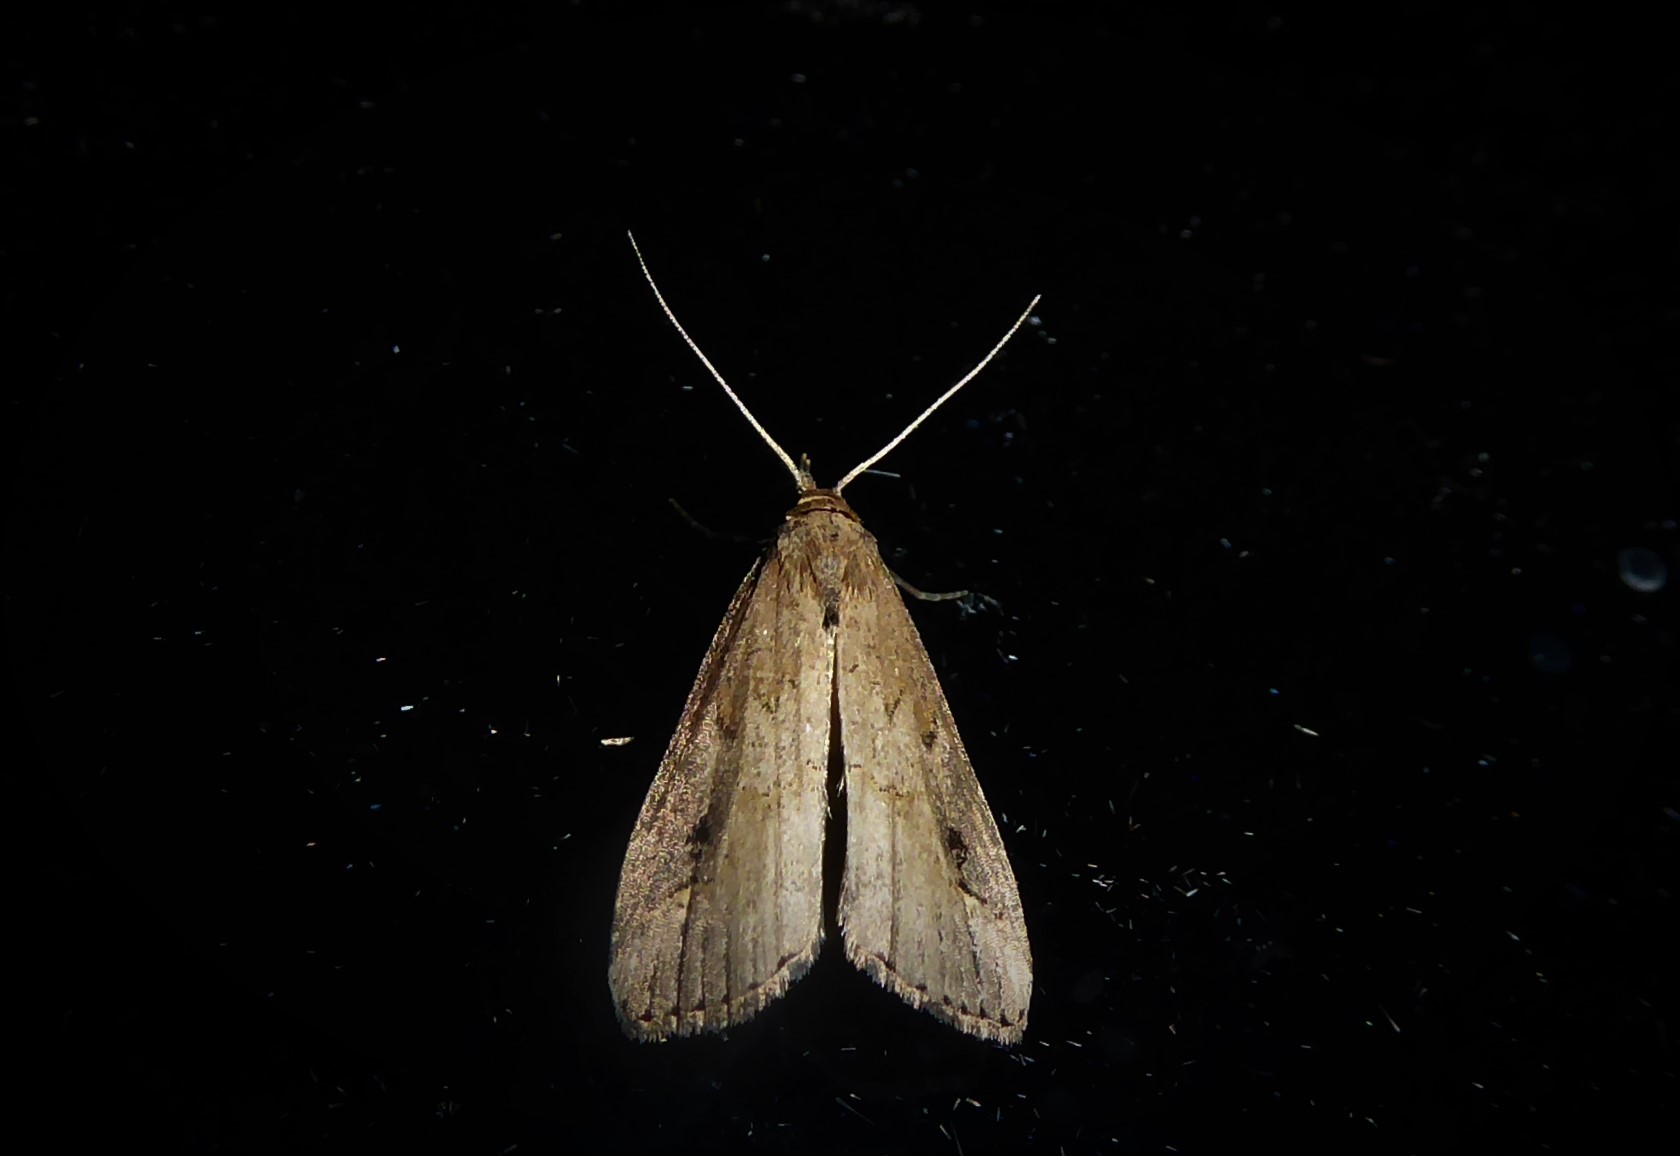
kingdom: Animalia
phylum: Arthropoda
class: Insecta
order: Lepidoptera
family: Erebidae
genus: Schrankia
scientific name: Schrankia costaestrigalis
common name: Pinion-streaked snout
